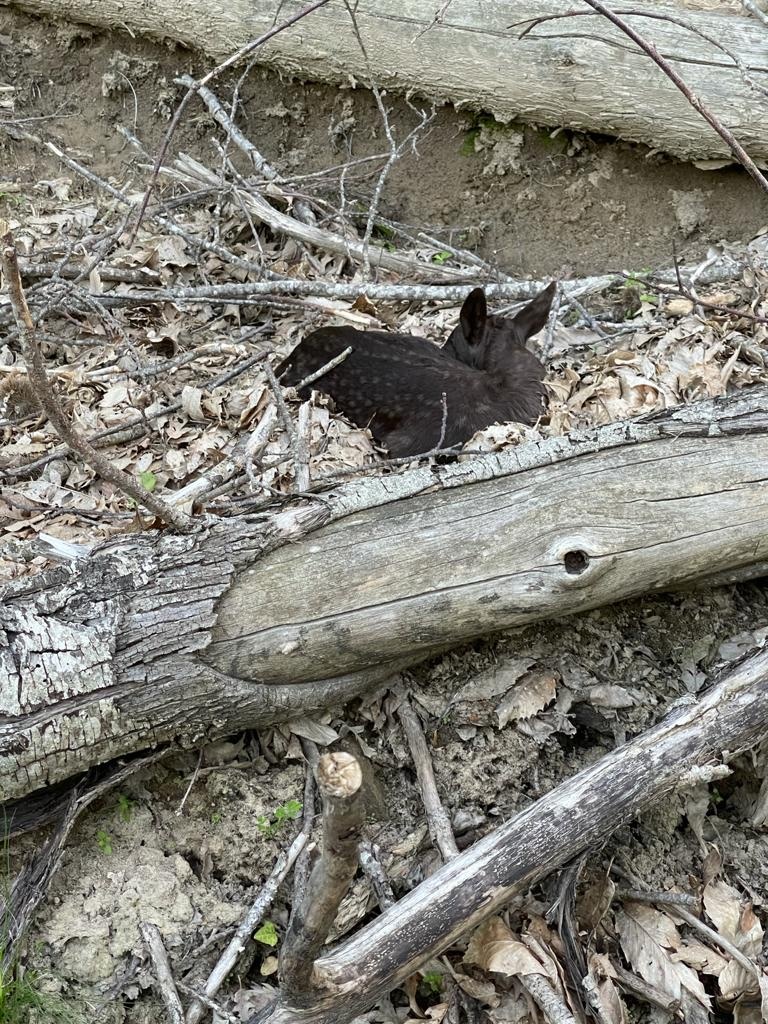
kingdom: Animalia
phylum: Chordata
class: Mammalia
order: Artiodactyla
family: Cervidae
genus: Dama
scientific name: Dama dama
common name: Fallow deer
